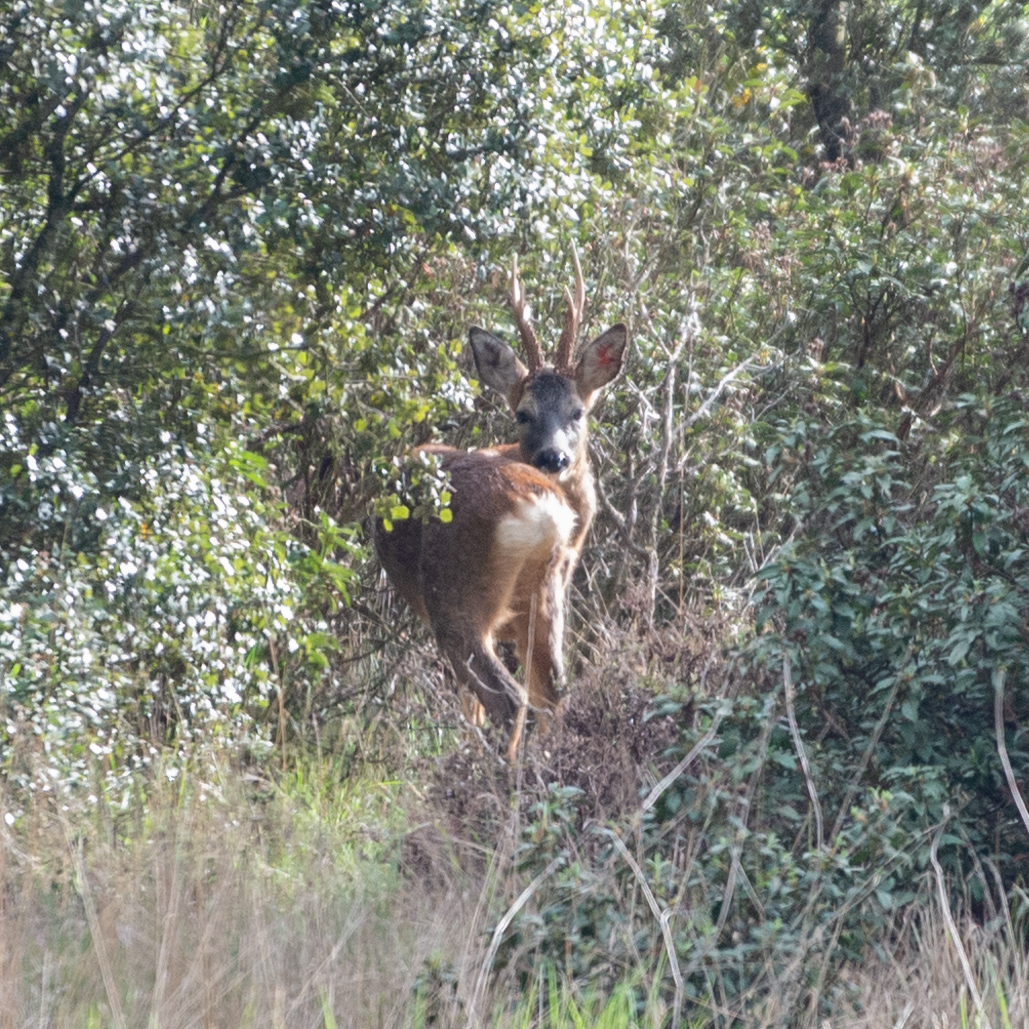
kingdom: Animalia
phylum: Chordata
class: Mammalia
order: Artiodactyla
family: Cervidae
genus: Capreolus
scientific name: Capreolus capreolus
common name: Western roe deer
